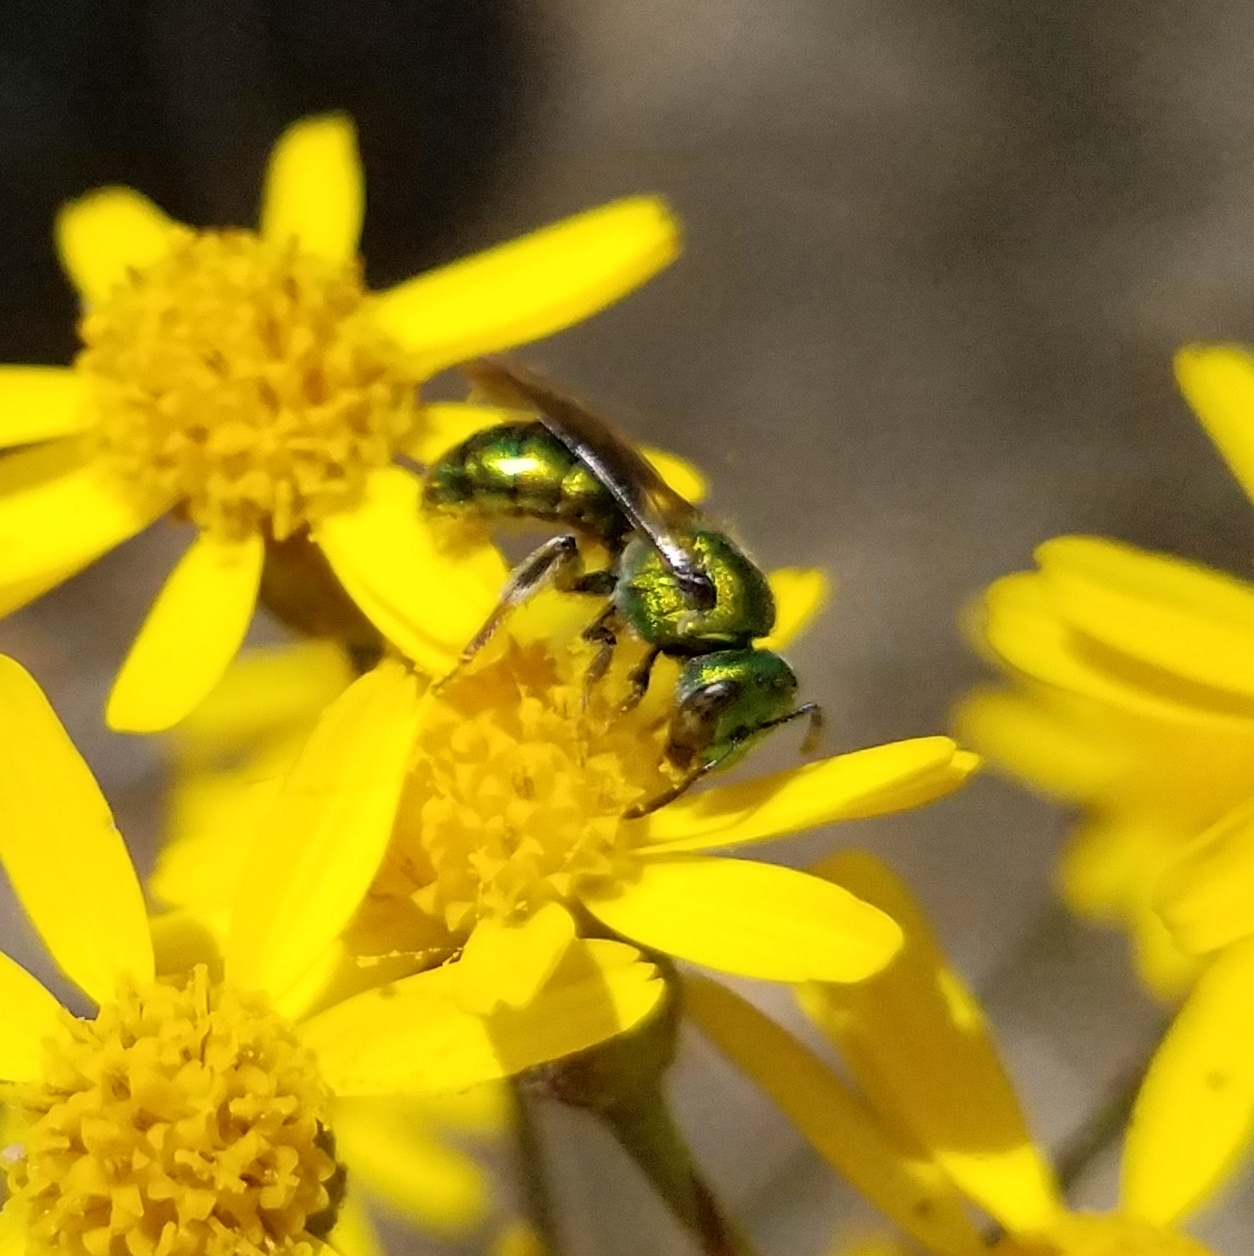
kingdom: Animalia
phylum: Arthropoda
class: Insecta
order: Hymenoptera
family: Halictidae
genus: Augochlora
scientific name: Augochlora pura
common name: Pure green sweat bee
